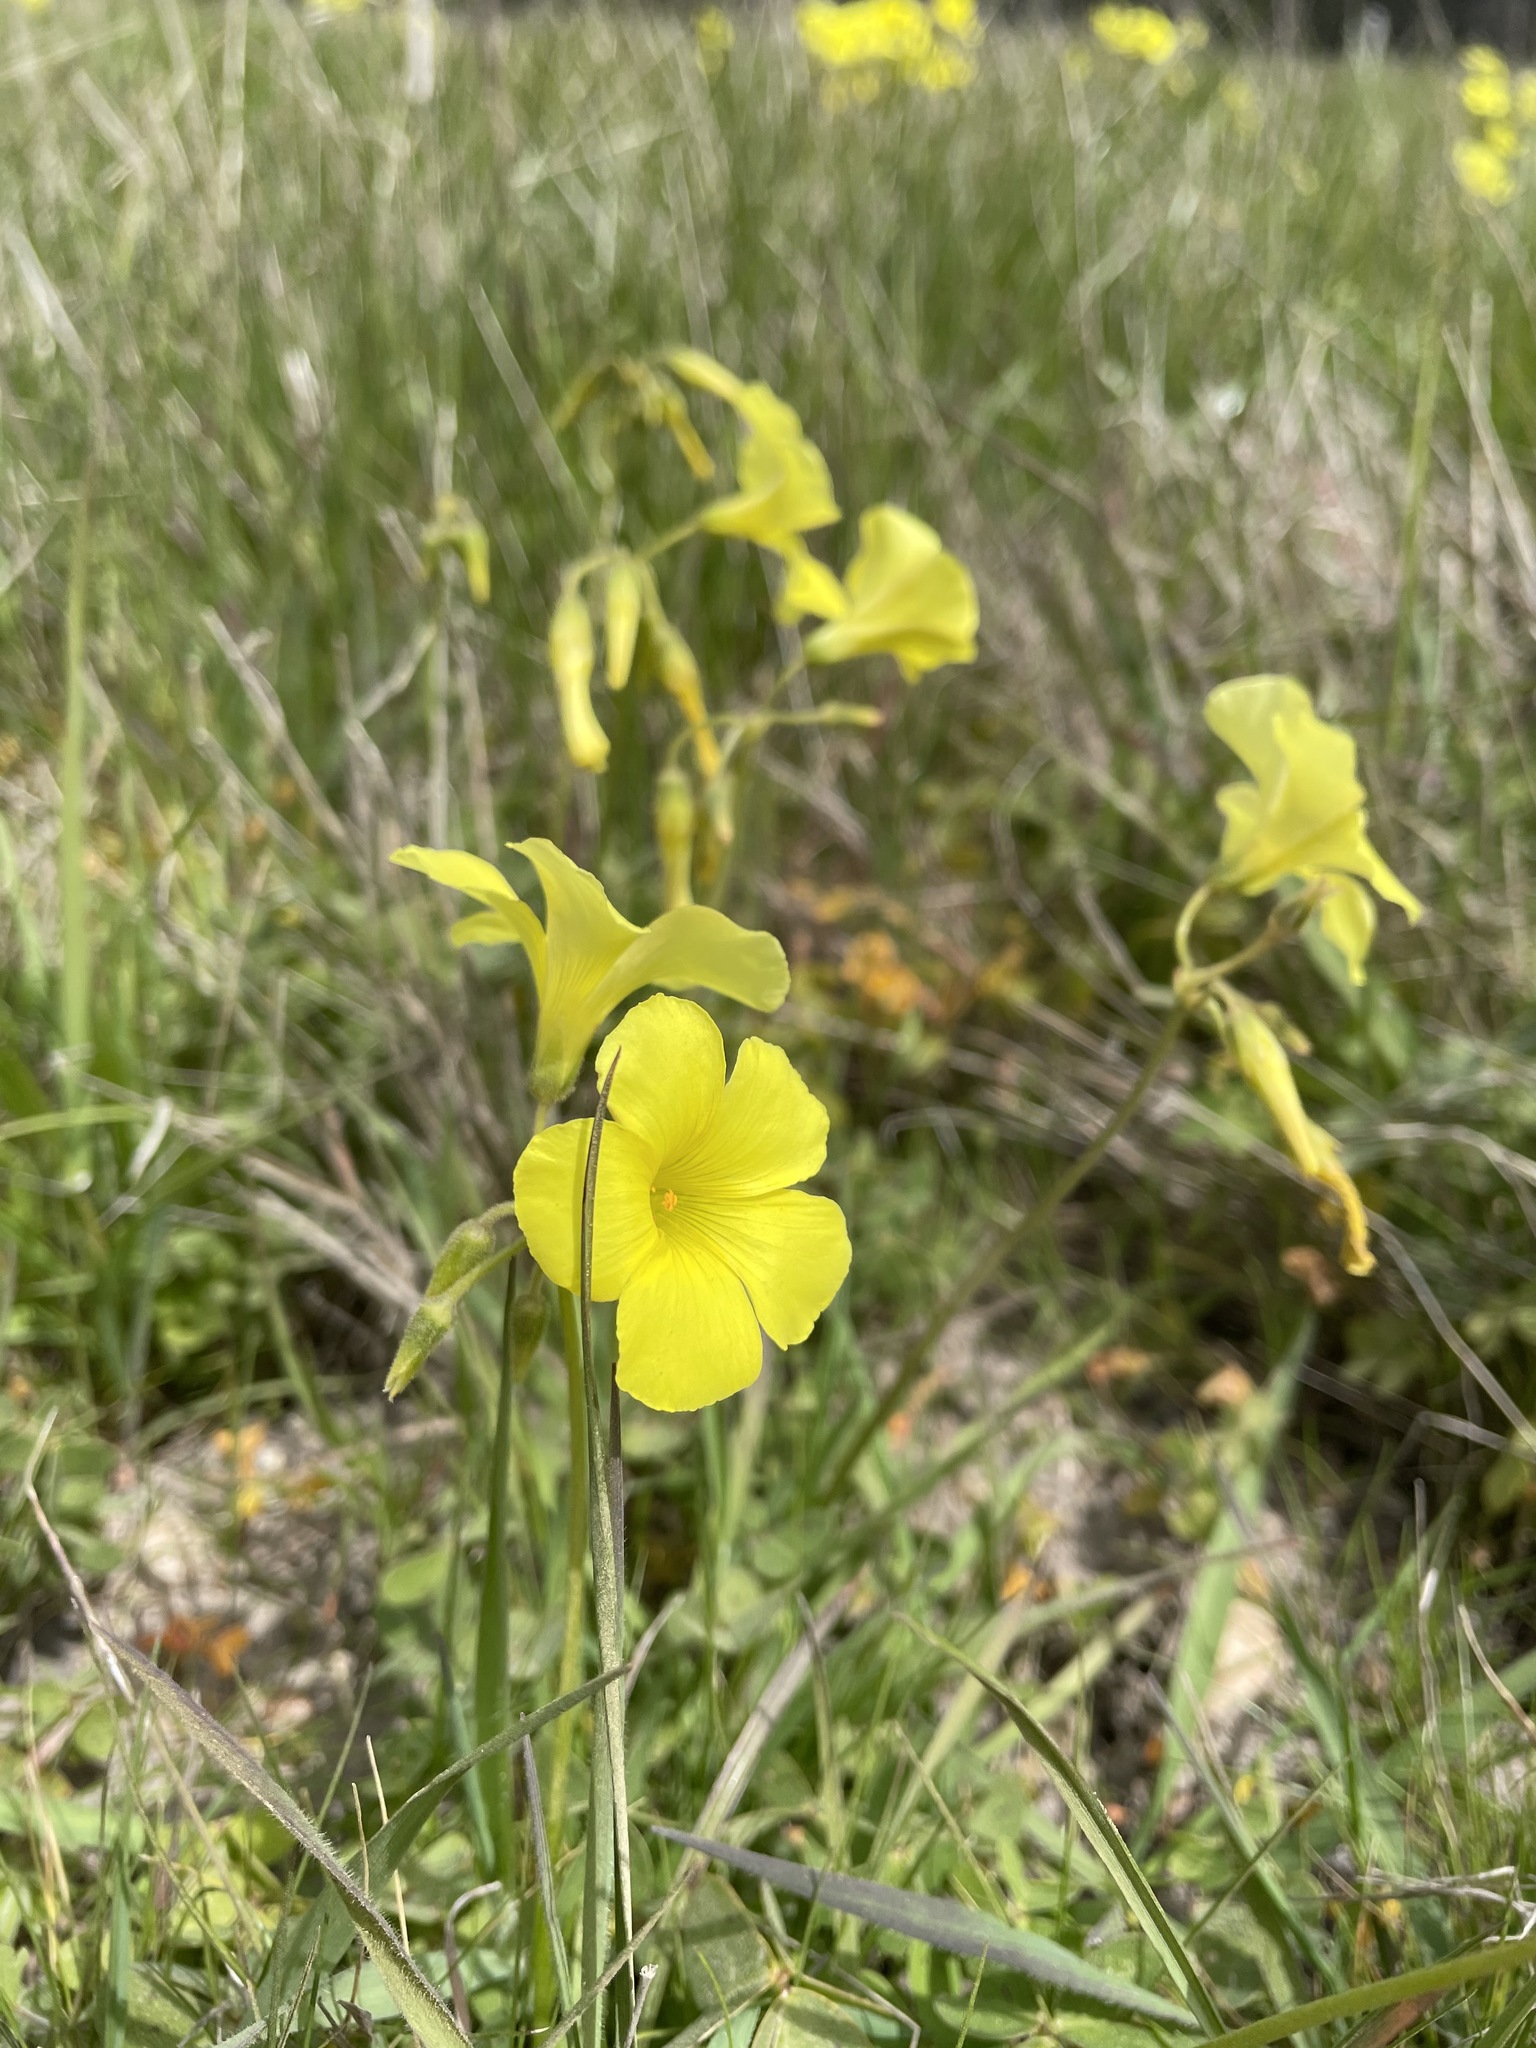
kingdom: Plantae
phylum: Tracheophyta
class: Magnoliopsida
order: Oxalidales
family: Oxalidaceae
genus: Oxalis
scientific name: Oxalis pes-caprae
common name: Bermuda-buttercup
